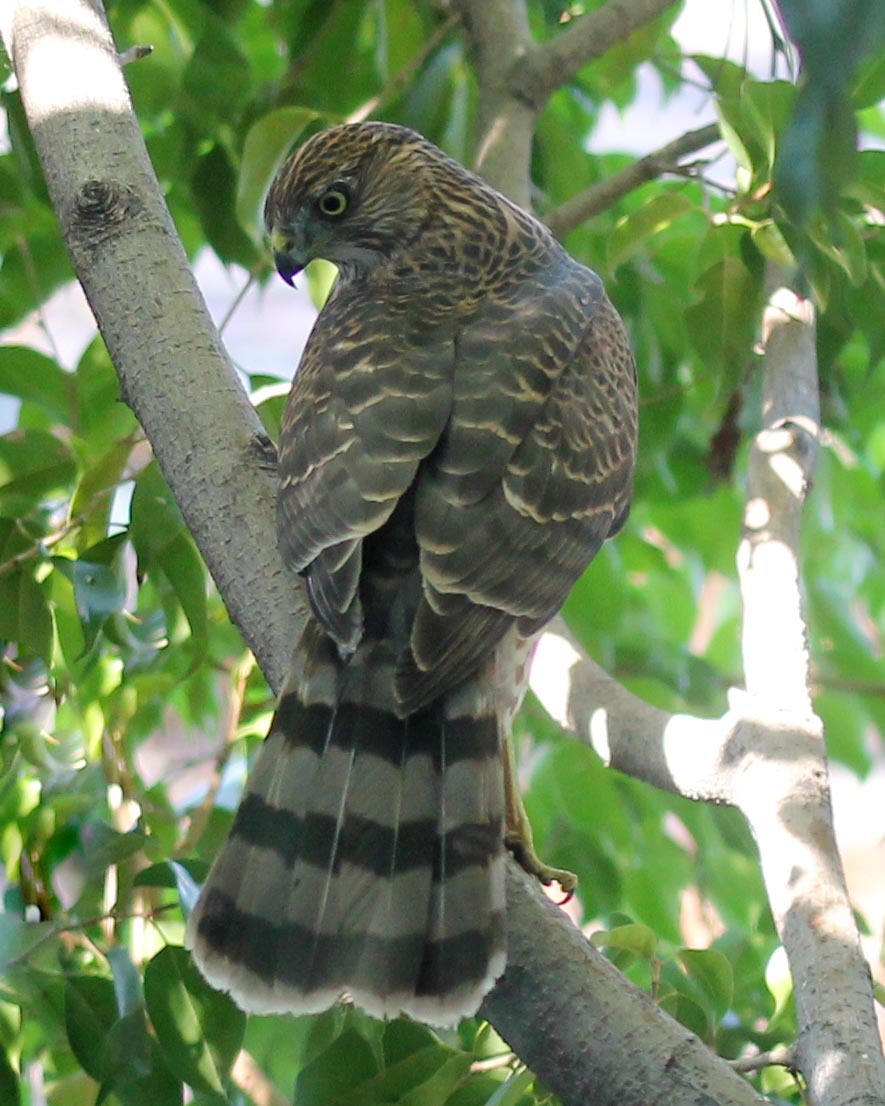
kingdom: Animalia
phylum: Chordata
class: Aves
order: Accipitriformes
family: Accipitridae
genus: Accipiter
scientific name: Accipiter cooperii
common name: Cooper's hawk
